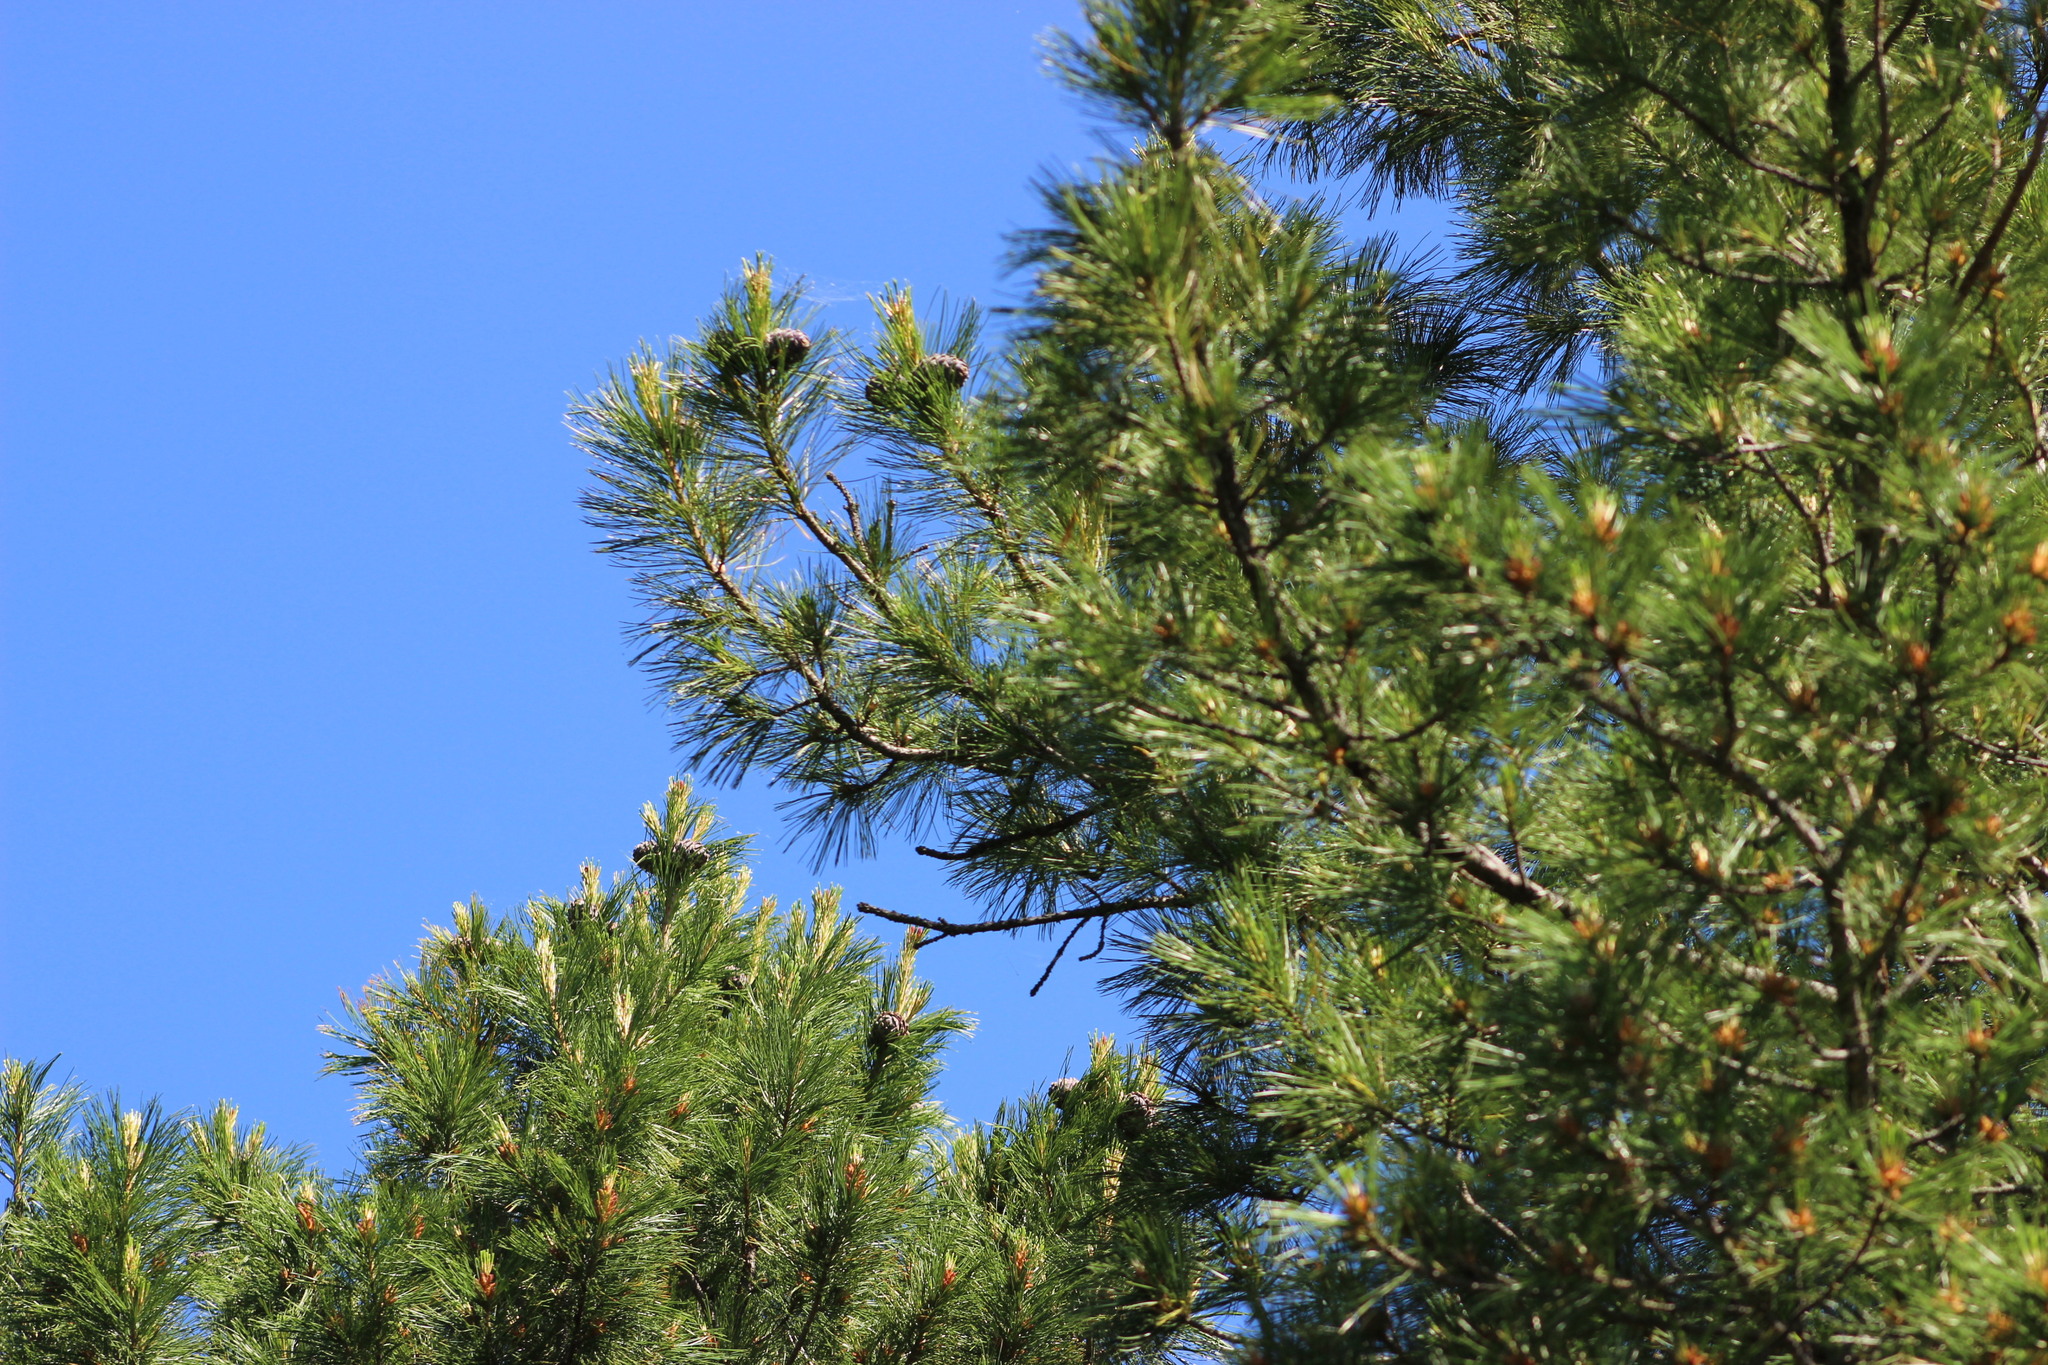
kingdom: Plantae
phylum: Tracheophyta
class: Pinopsida
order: Pinales
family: Pinaceae
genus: Pinus
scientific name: Pinus sibirica
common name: Siberian pine
